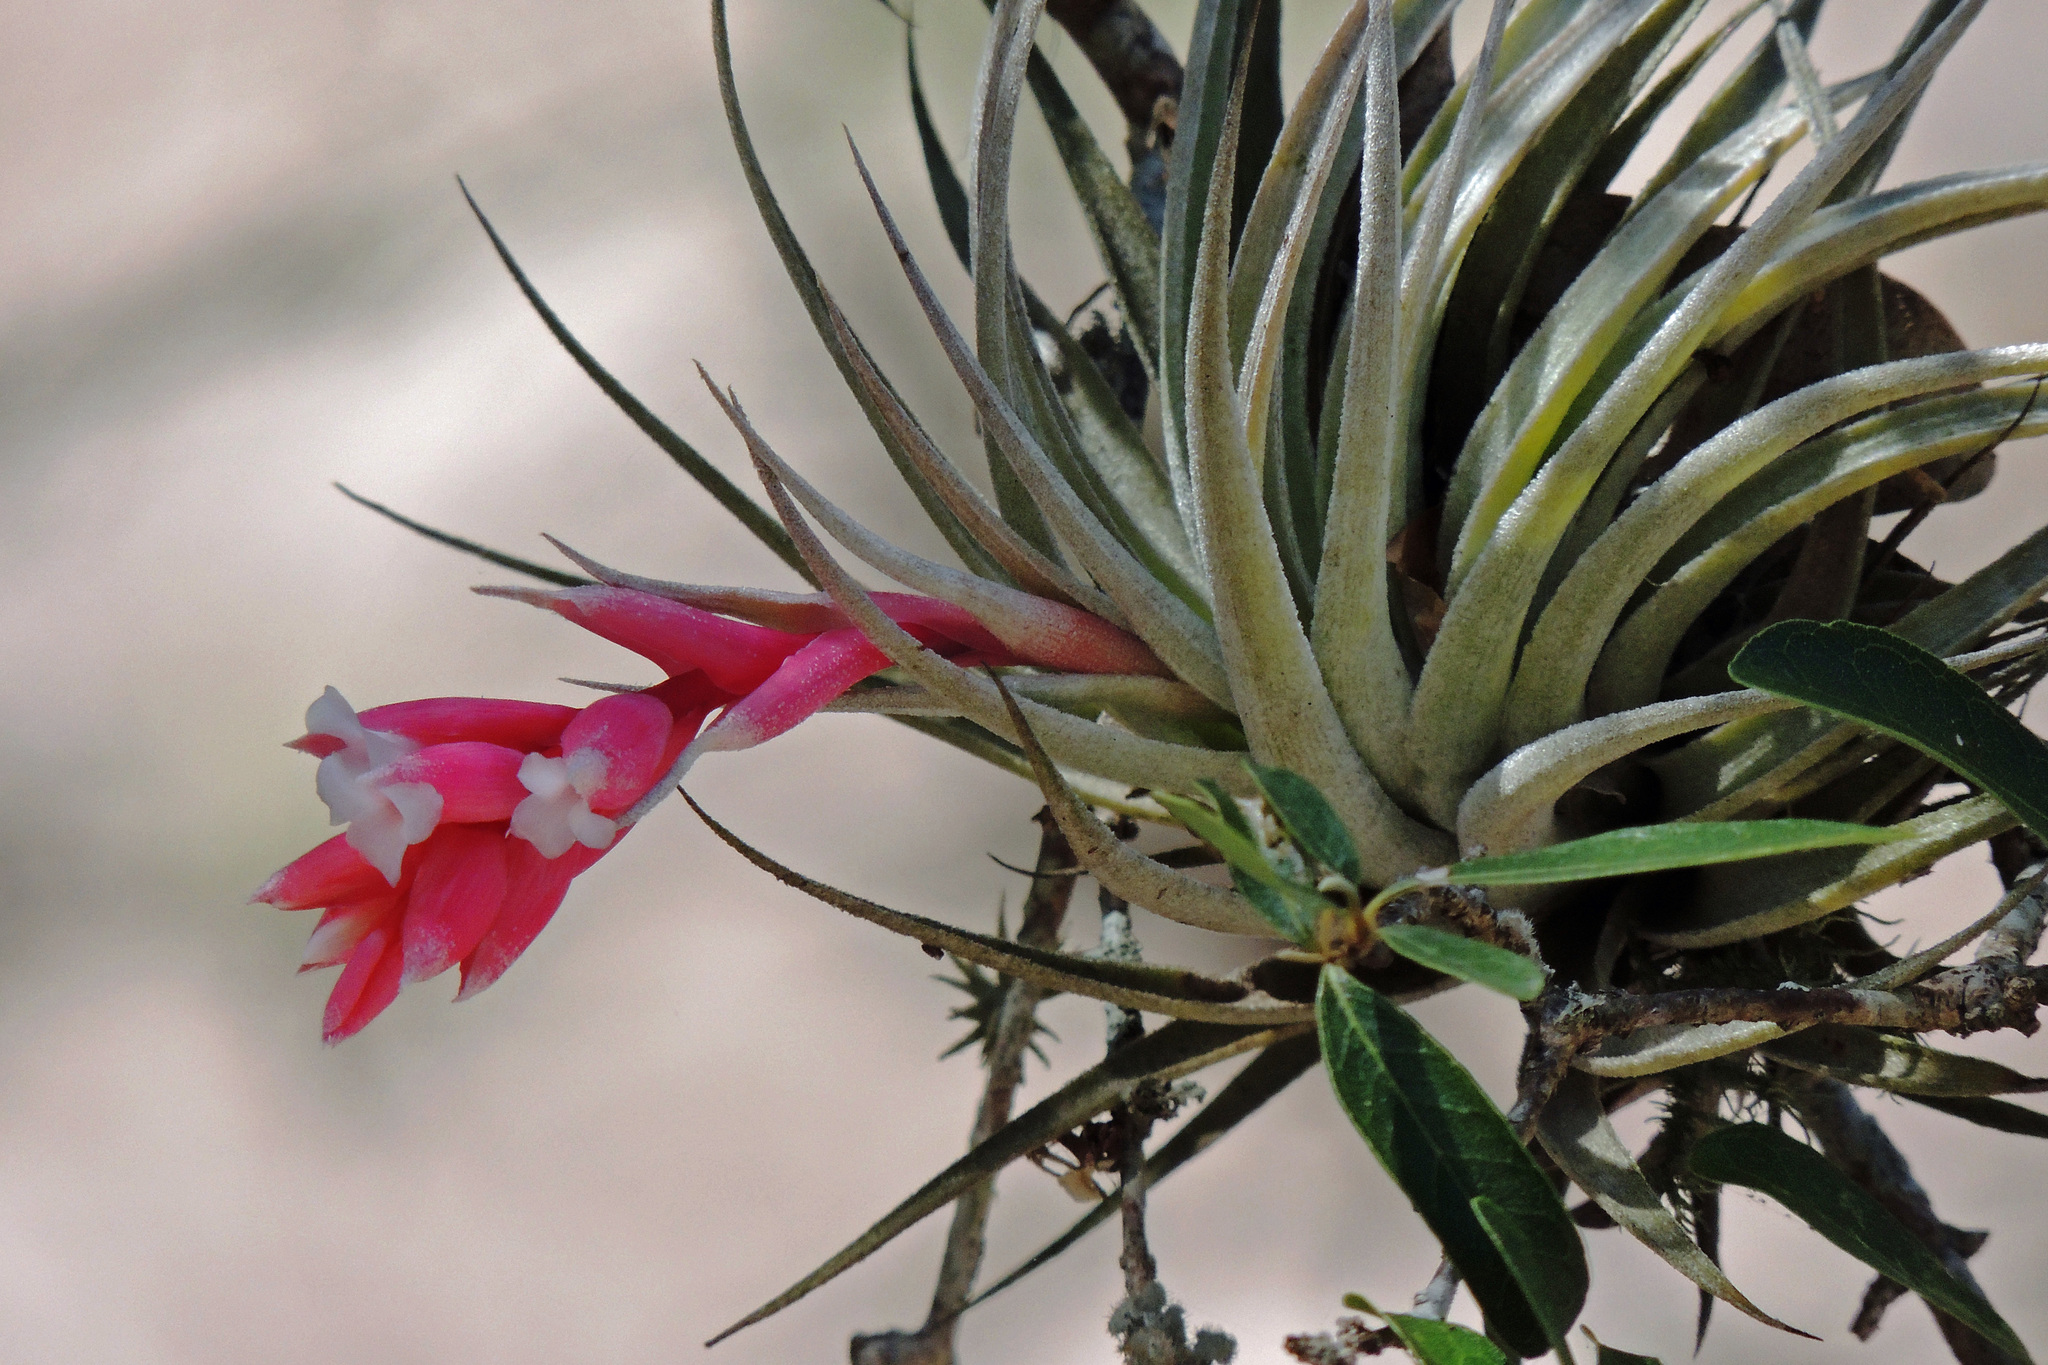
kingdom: Plantae
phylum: Tracheophyta
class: Liliopsida
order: Poales
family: Bromeliaceae
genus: Tillandsia
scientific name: Tillandsia recurvifolia
